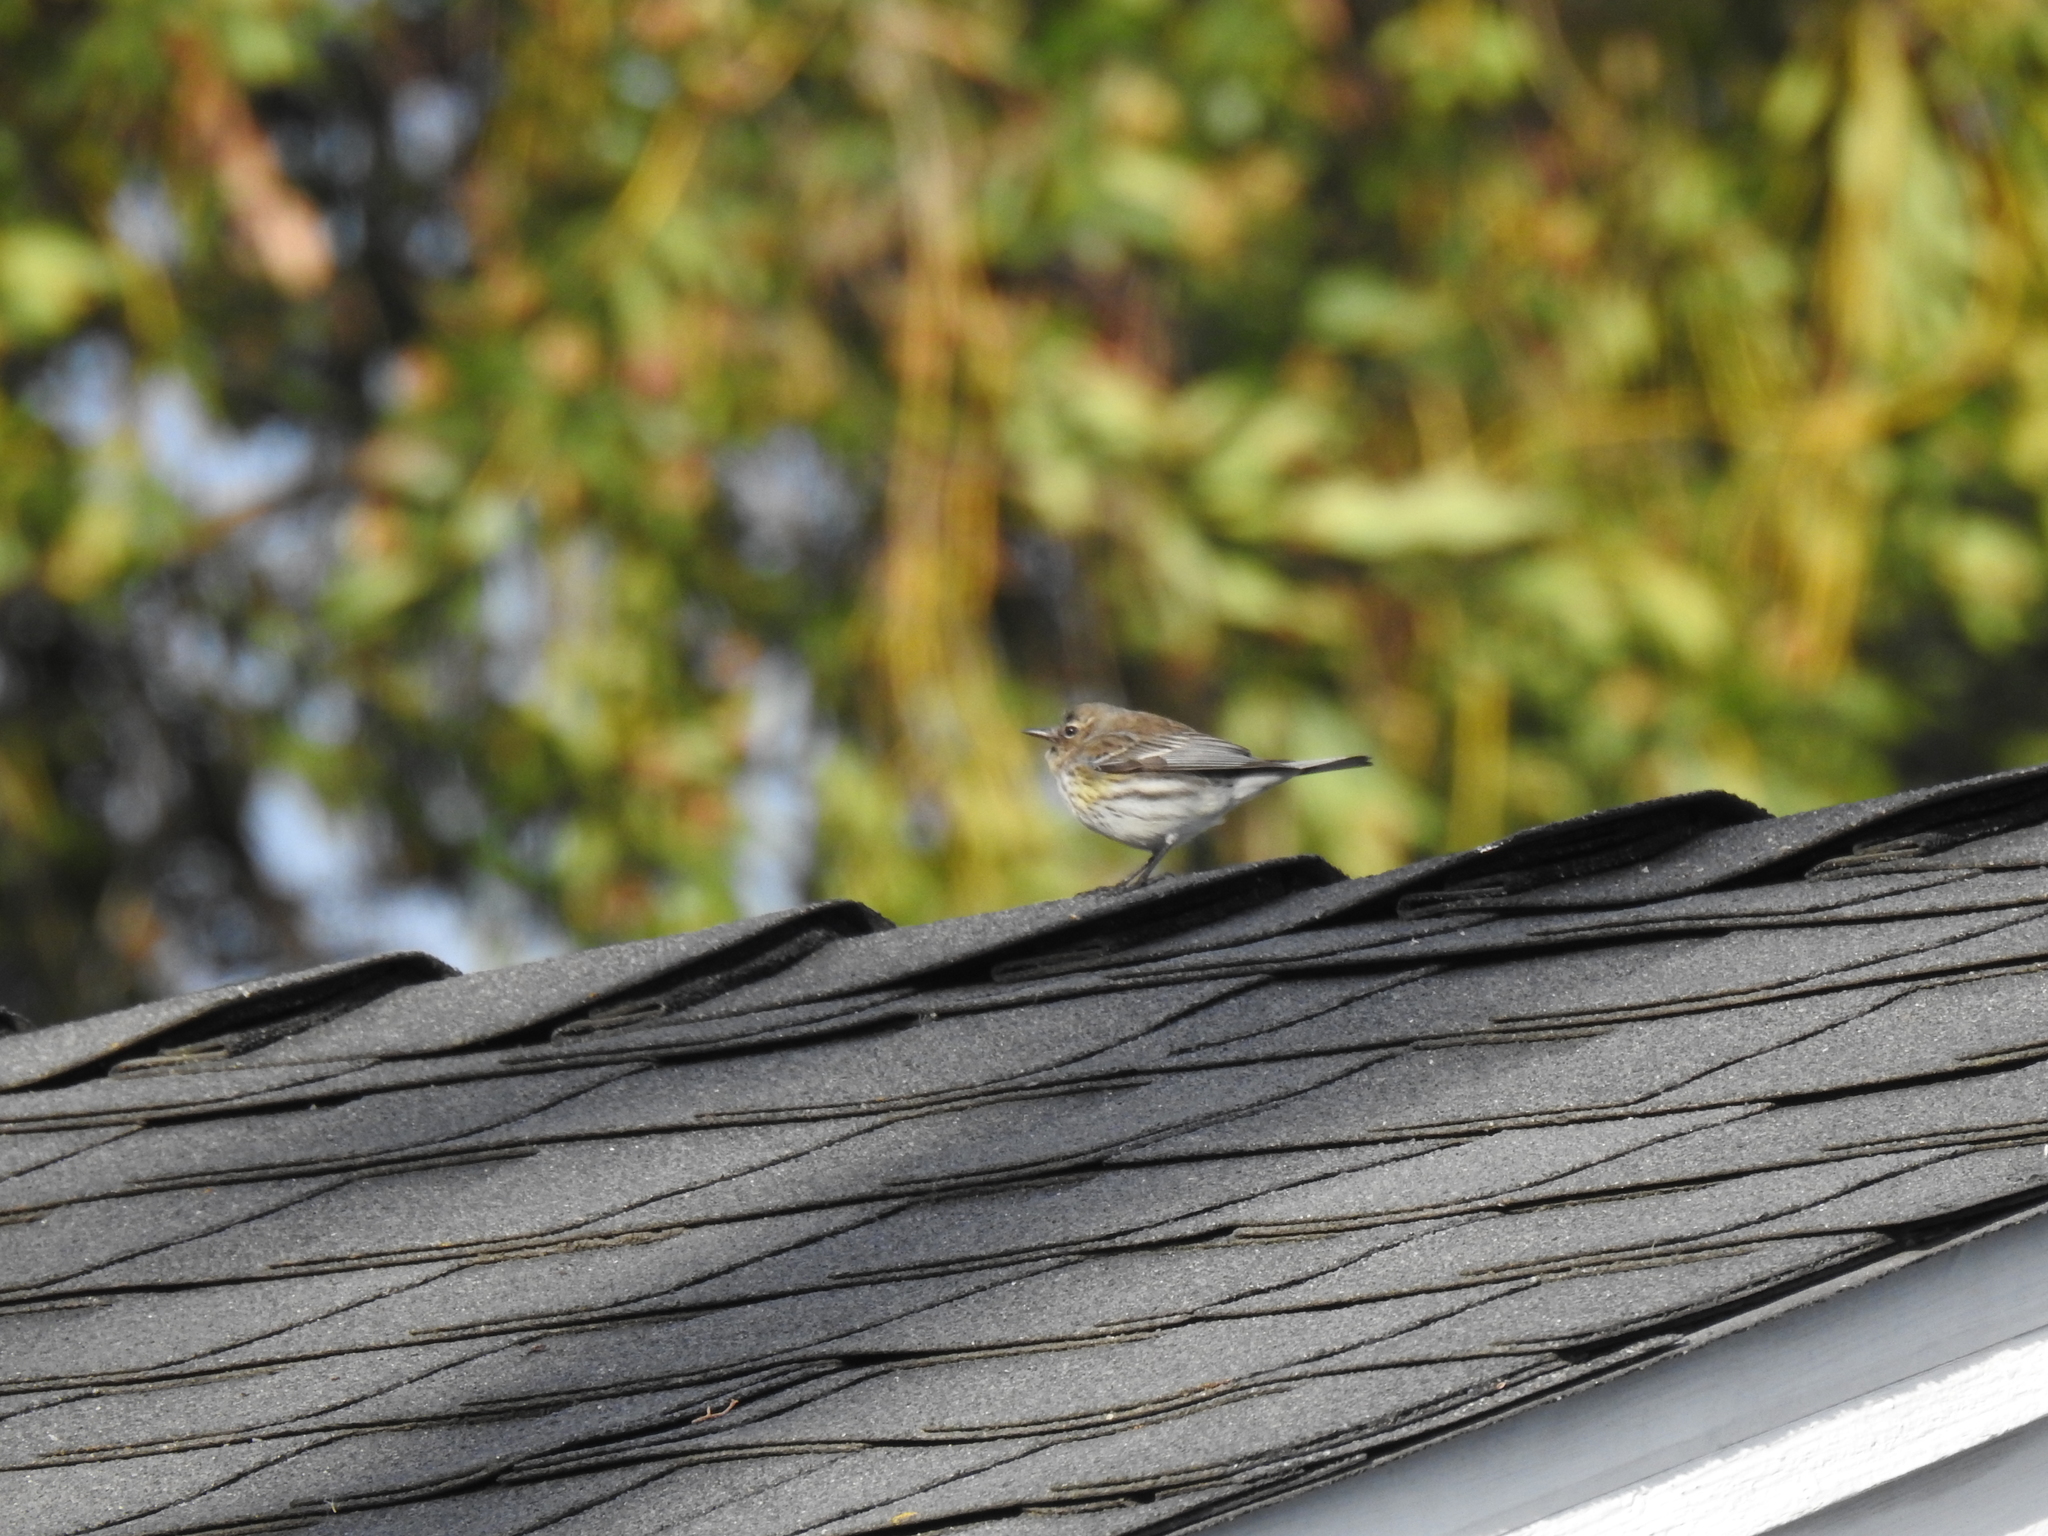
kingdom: Animalia
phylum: Chordata
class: Aves
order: Passeriformes
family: Parulidae
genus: Setophaga
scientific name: Setophaga coronata
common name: Myrtle warbler
